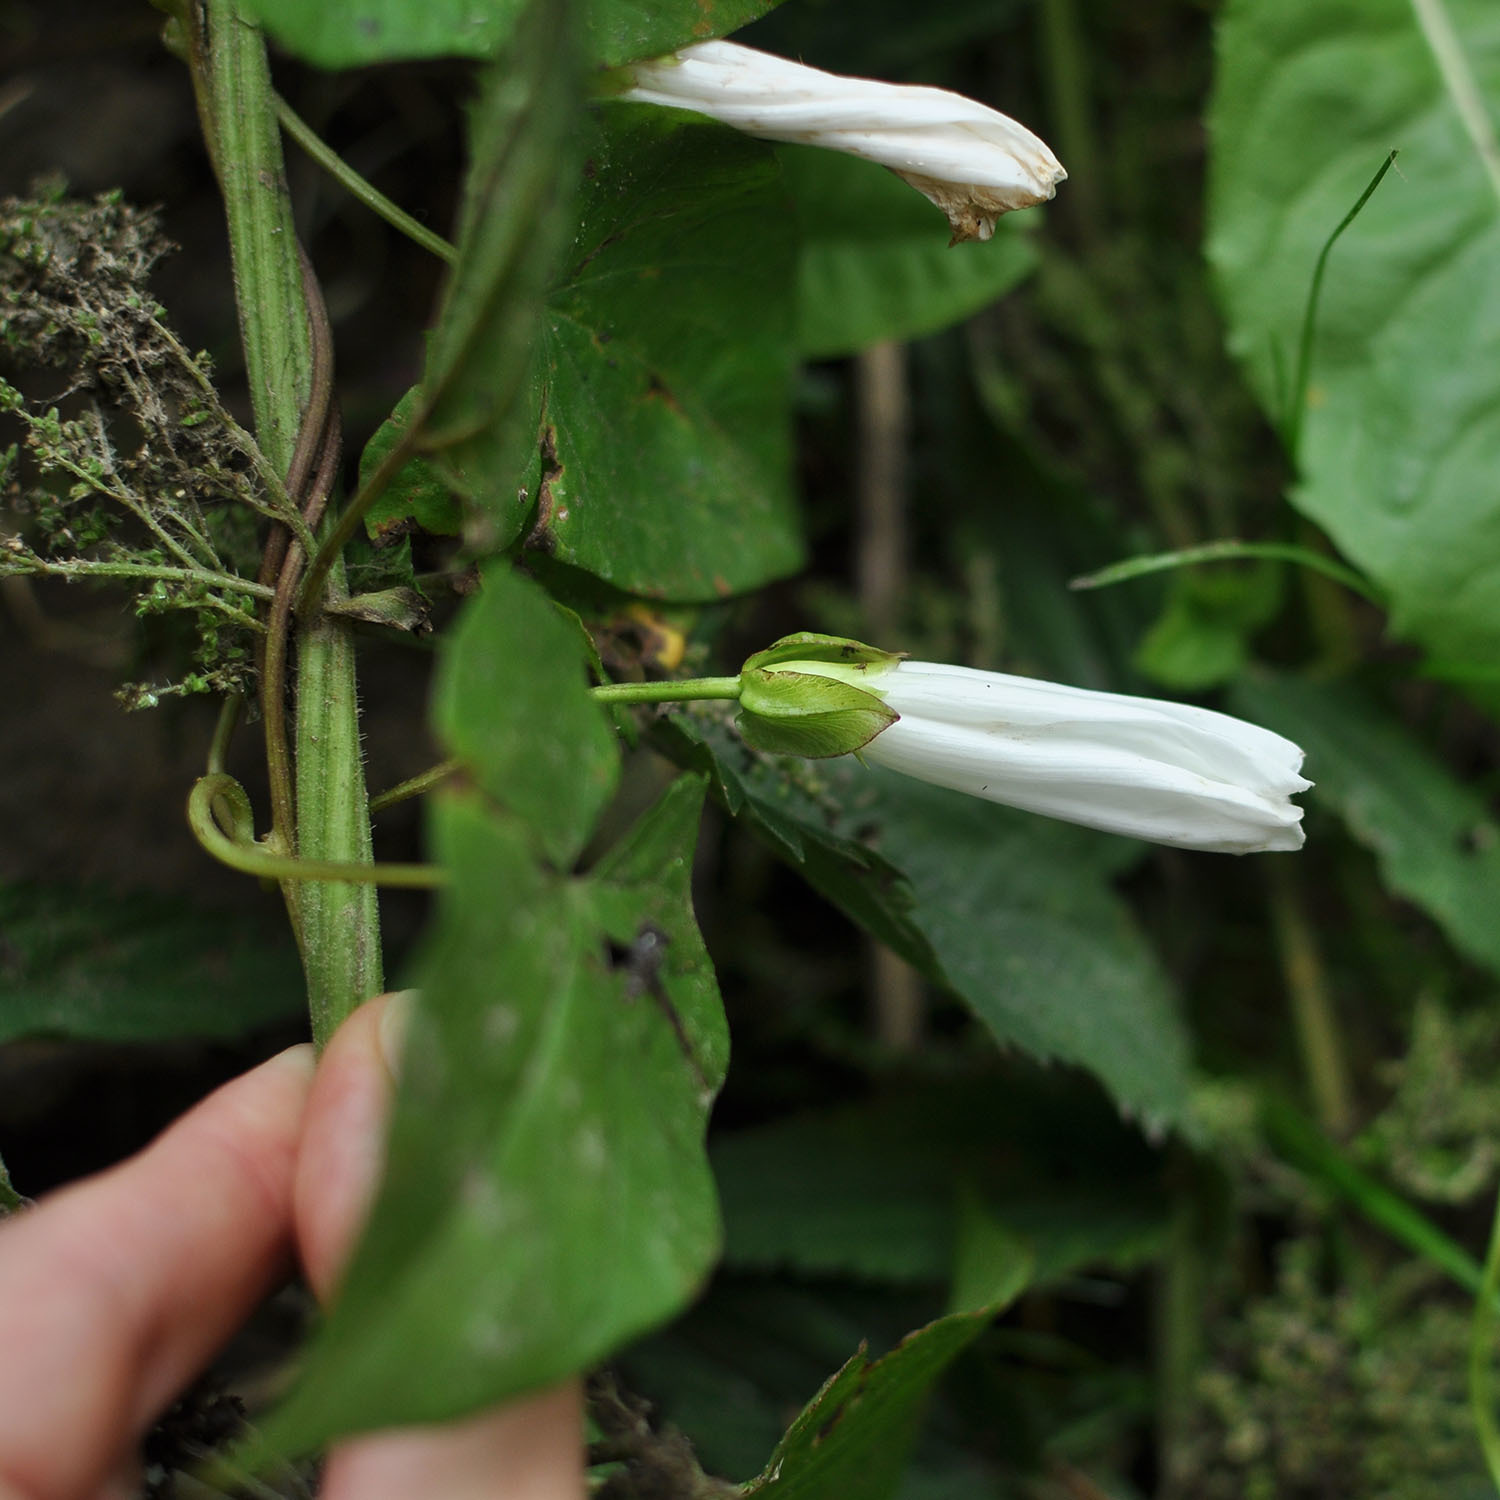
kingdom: Plantae
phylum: Tracheophyta
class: Magnoliopsida
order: Solanales
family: Convolvulaceae
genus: Calystegia
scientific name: Calystegia sepium
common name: Hedge bindweed
